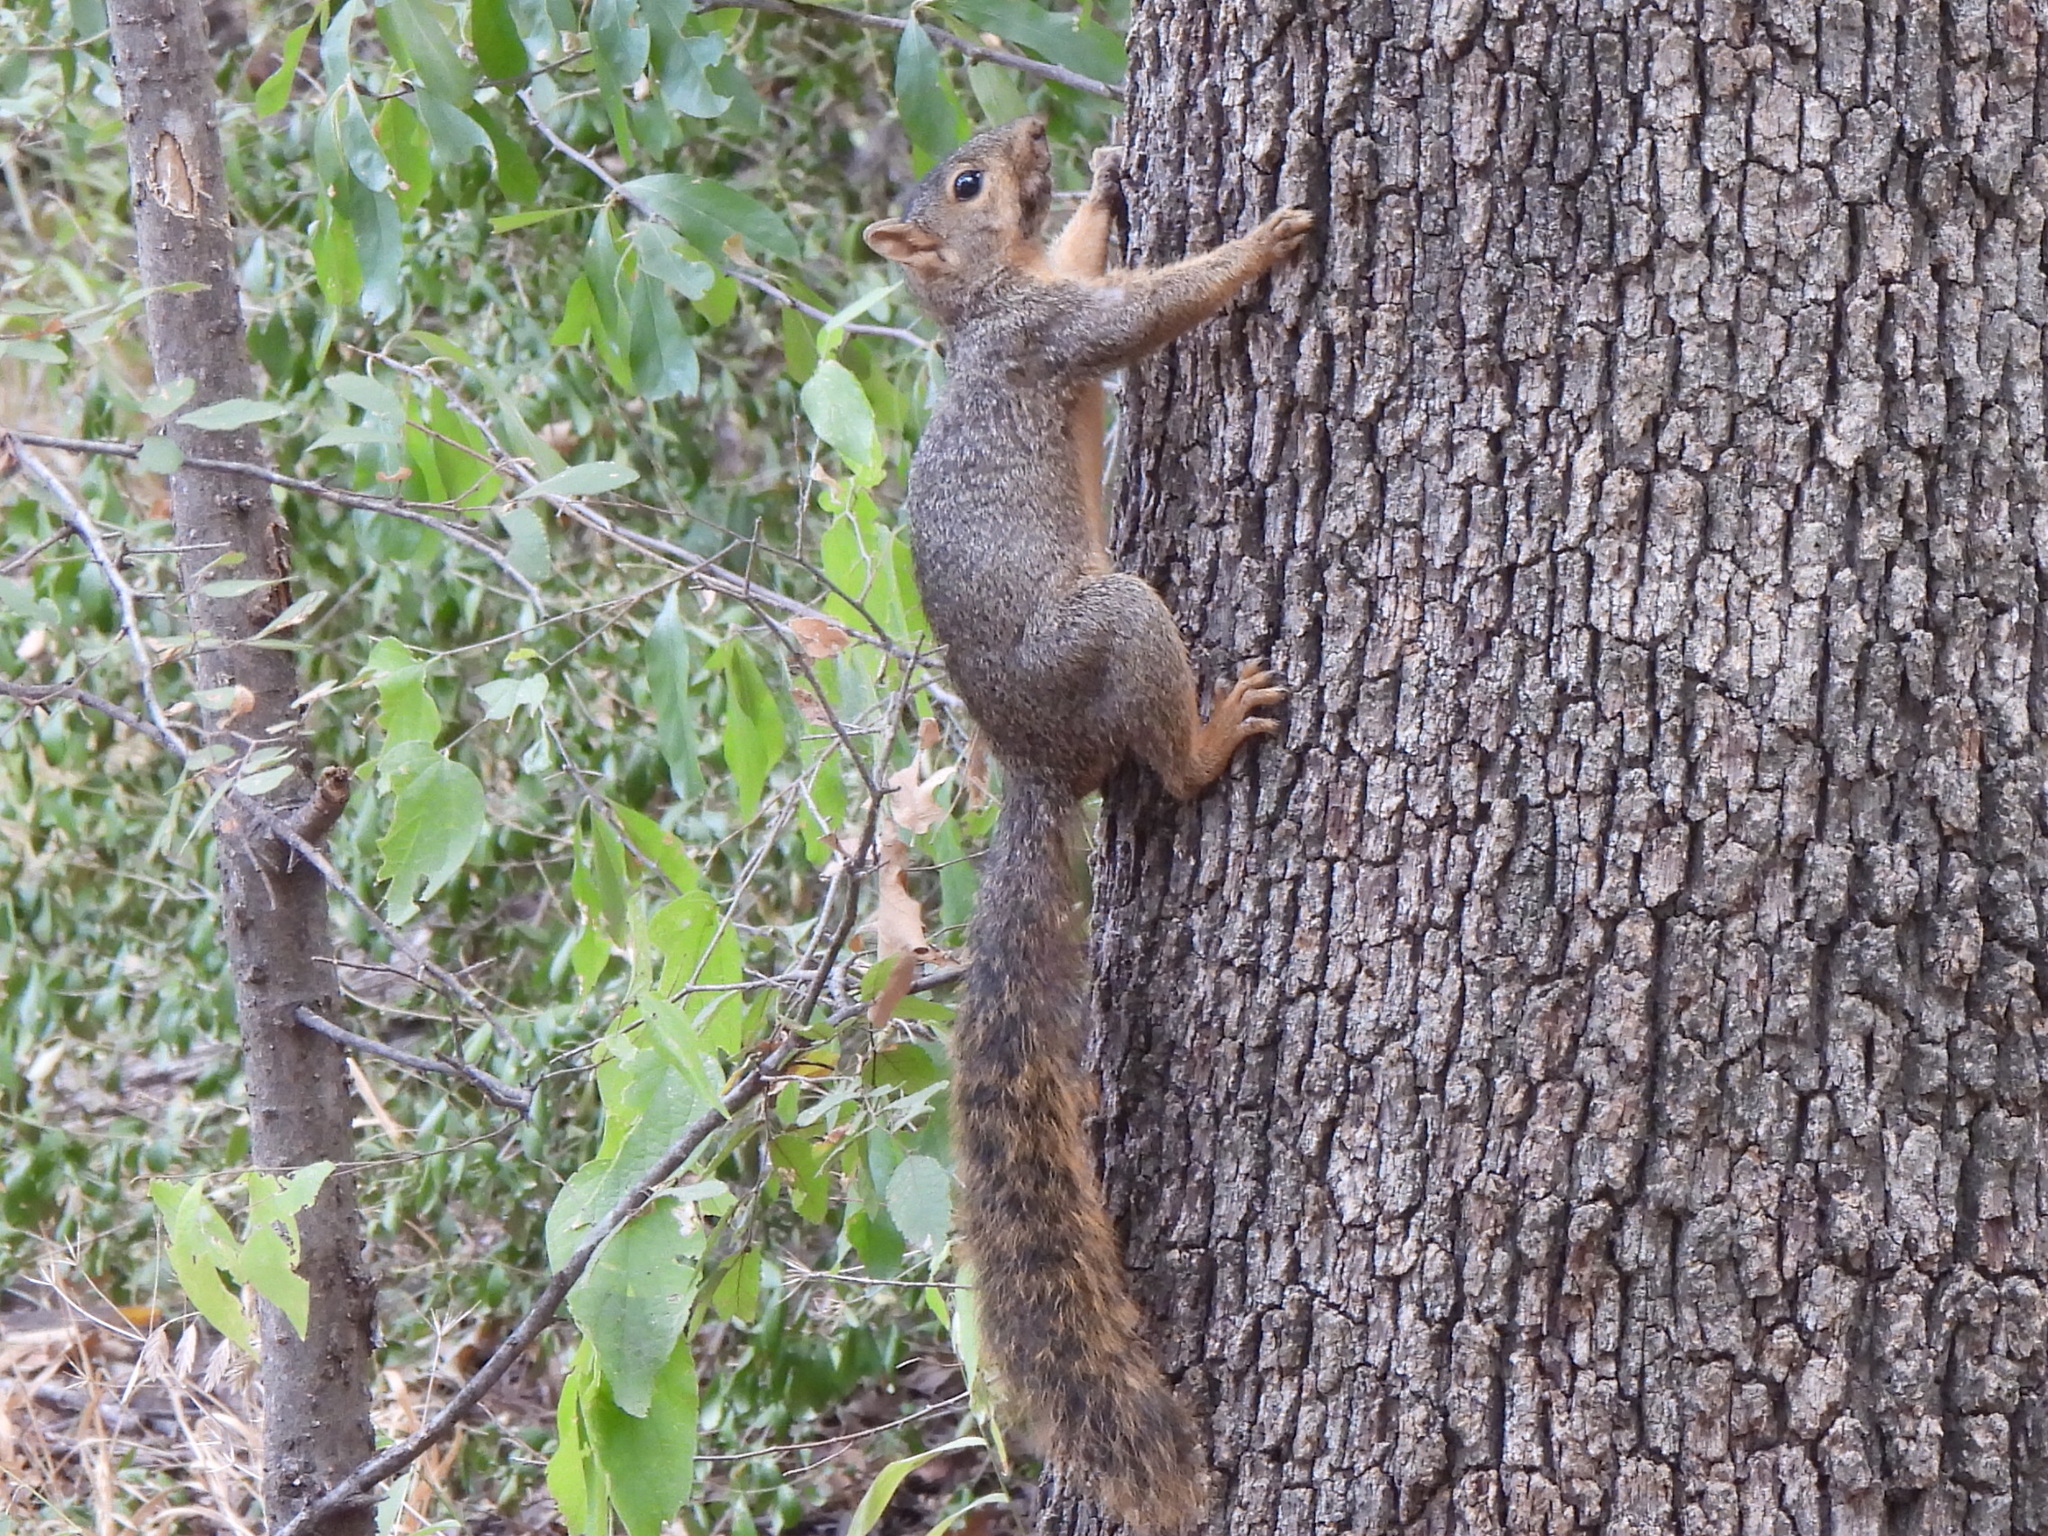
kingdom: Animalia
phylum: Chordata
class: Mammalia
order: Rodentia
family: Sciuridae
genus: Sciurus
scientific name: Sciurus niger
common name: Fox squirrel
